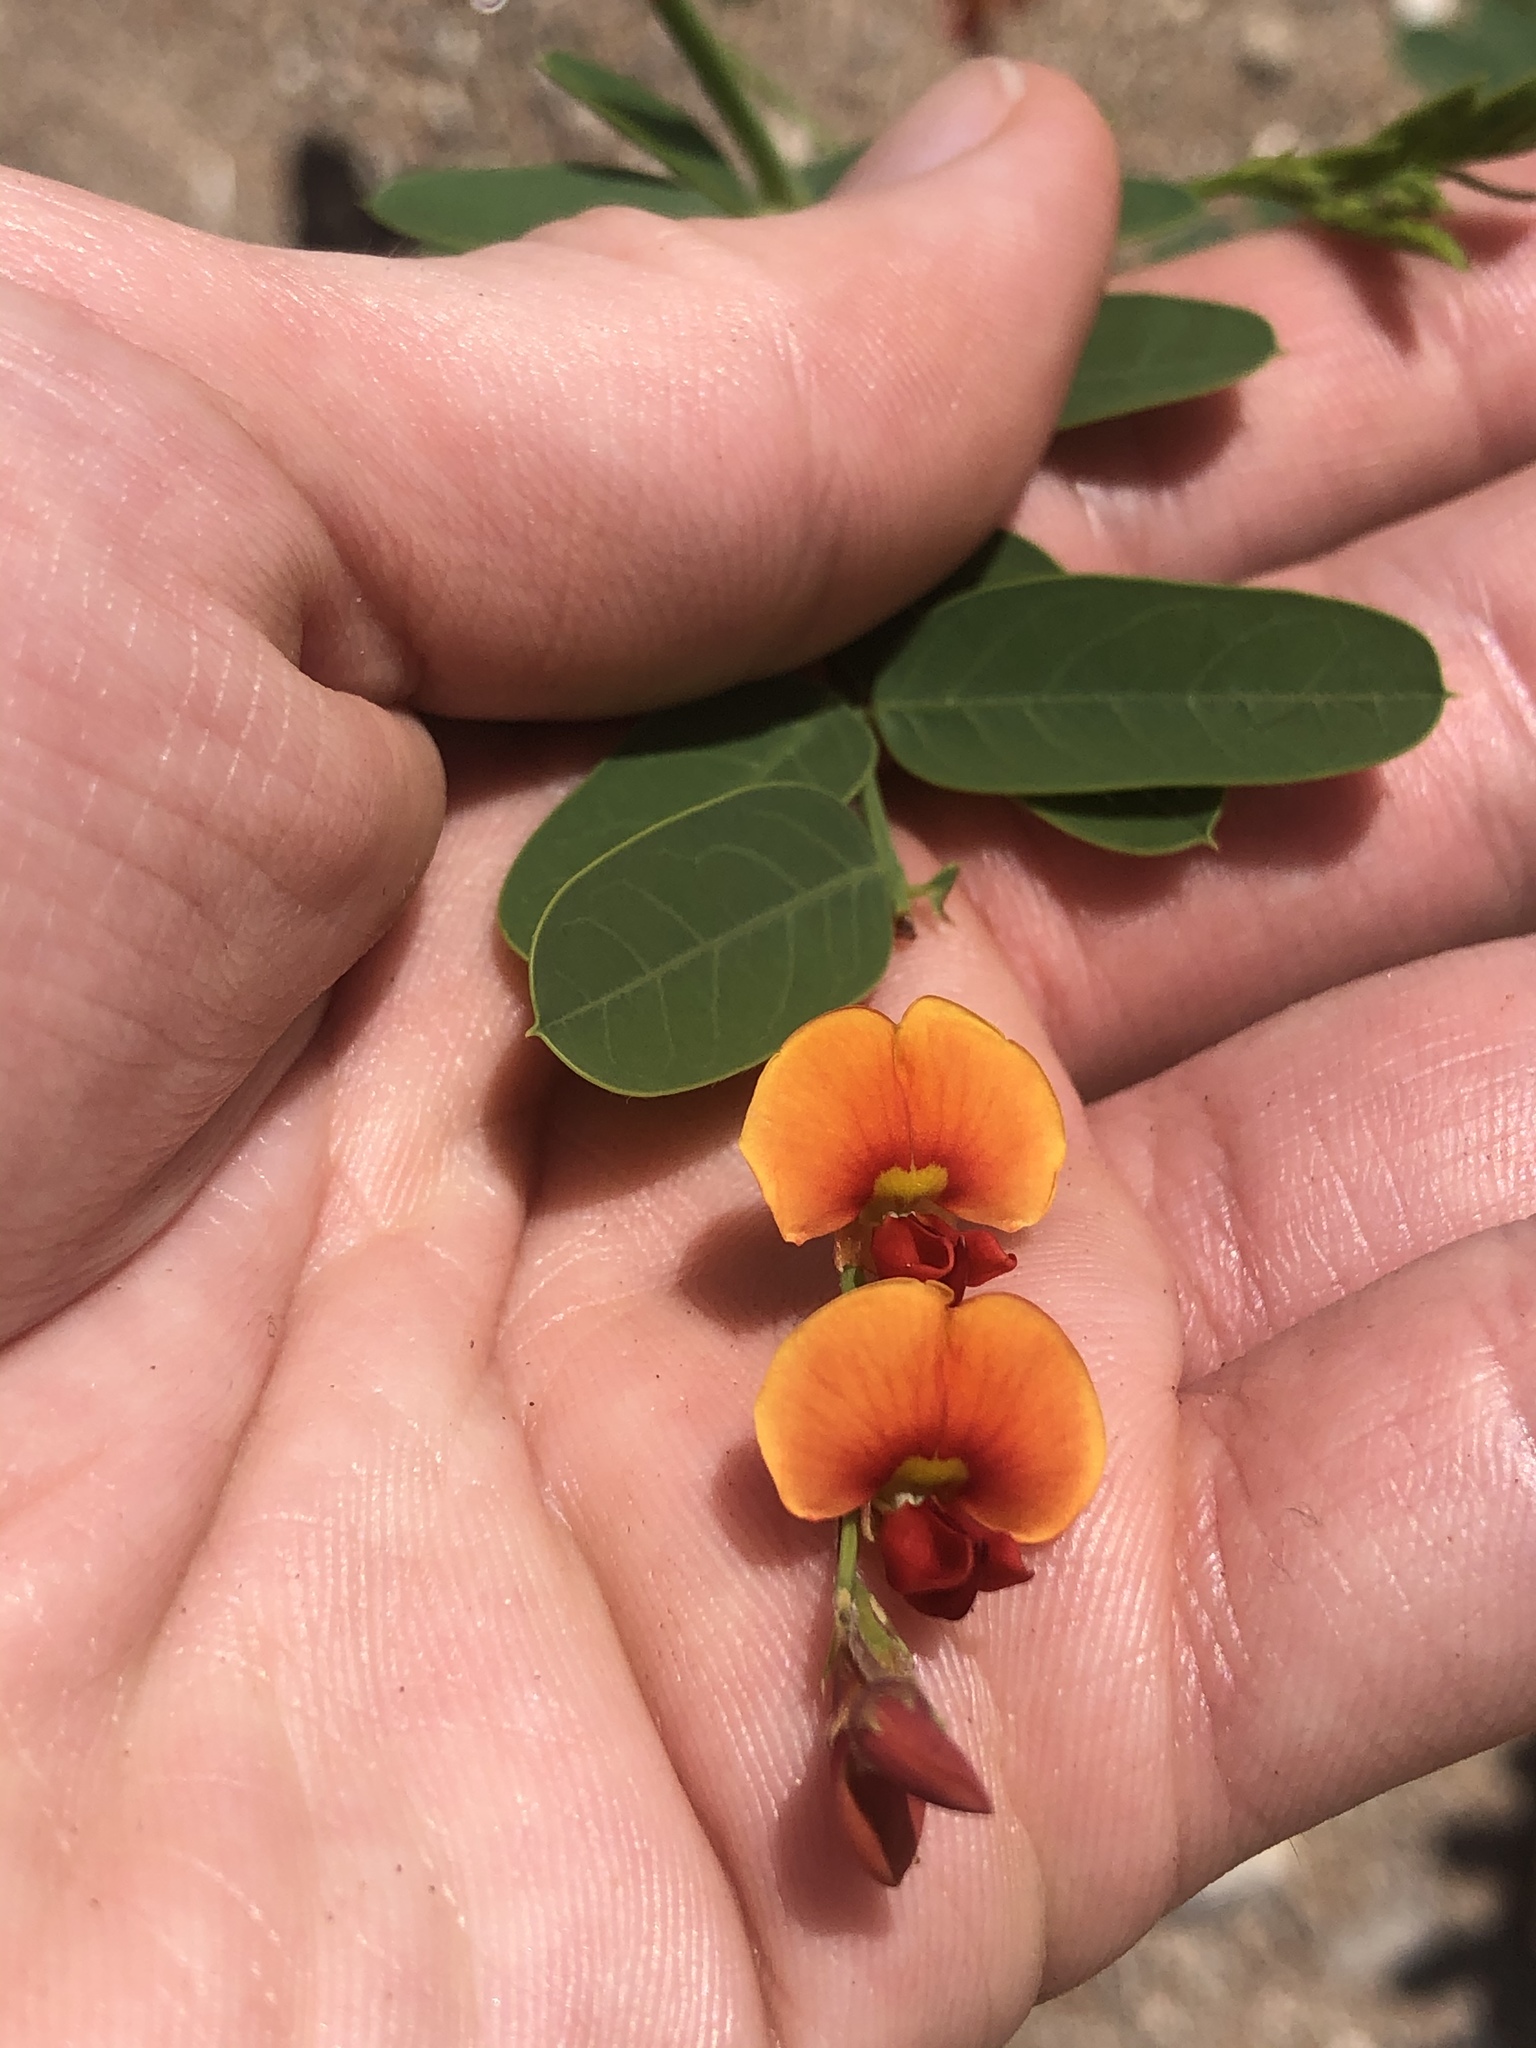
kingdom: Plantae
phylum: Tracheophyta
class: Magnoliopsida
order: Fabales
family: Fabaceae
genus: Sesbania
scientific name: Sesbania vesicaria
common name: Bagpod
